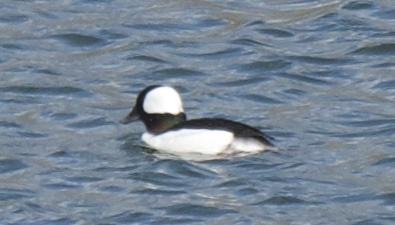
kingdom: Animalia
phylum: Chordata
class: Aves
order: Anseriformes
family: Anatidae
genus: Bucephala
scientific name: Bucephala albeola
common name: Bufflehead
